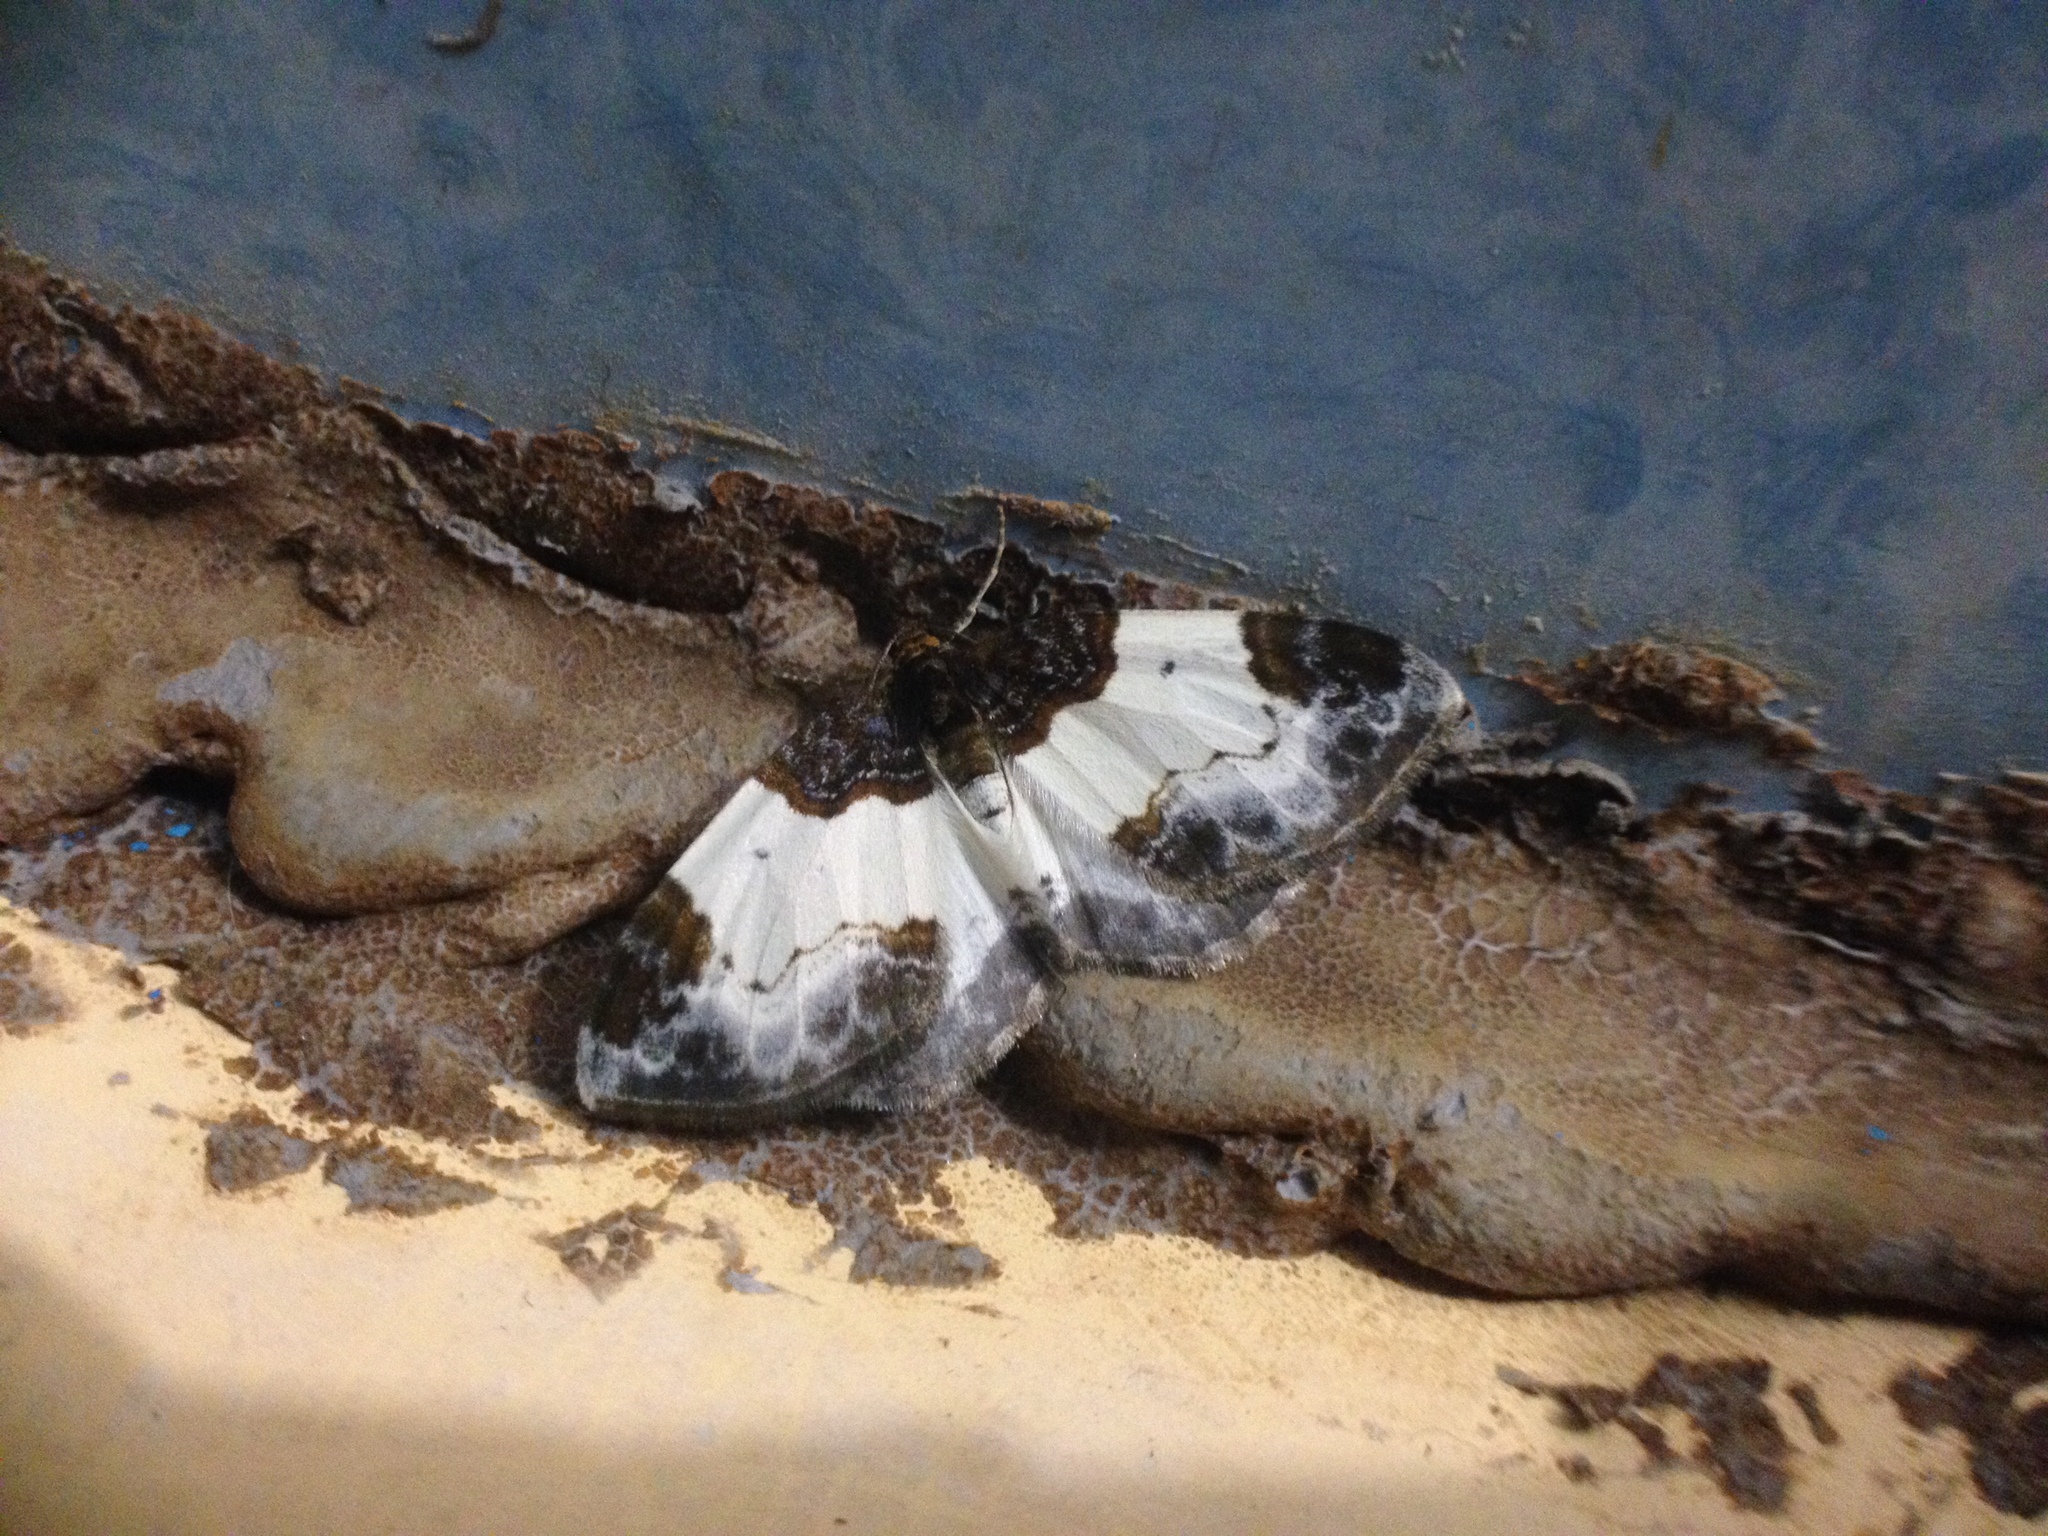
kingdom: Animalia
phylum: Arthropoda
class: Insecta
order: Lepidoptera
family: Geometridae
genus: Mesoleuca
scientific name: Mesoleuca albicillata
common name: Beautiful carpet
